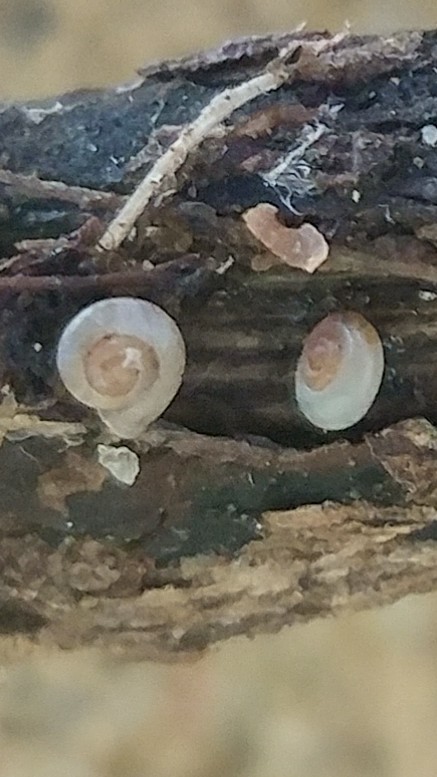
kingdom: Animalia
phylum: Mollusca
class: Gastropoda
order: Stylommatophora
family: Valloniidae
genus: Vallonia
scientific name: Vallonia excentrica
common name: Eccentric grass snail
